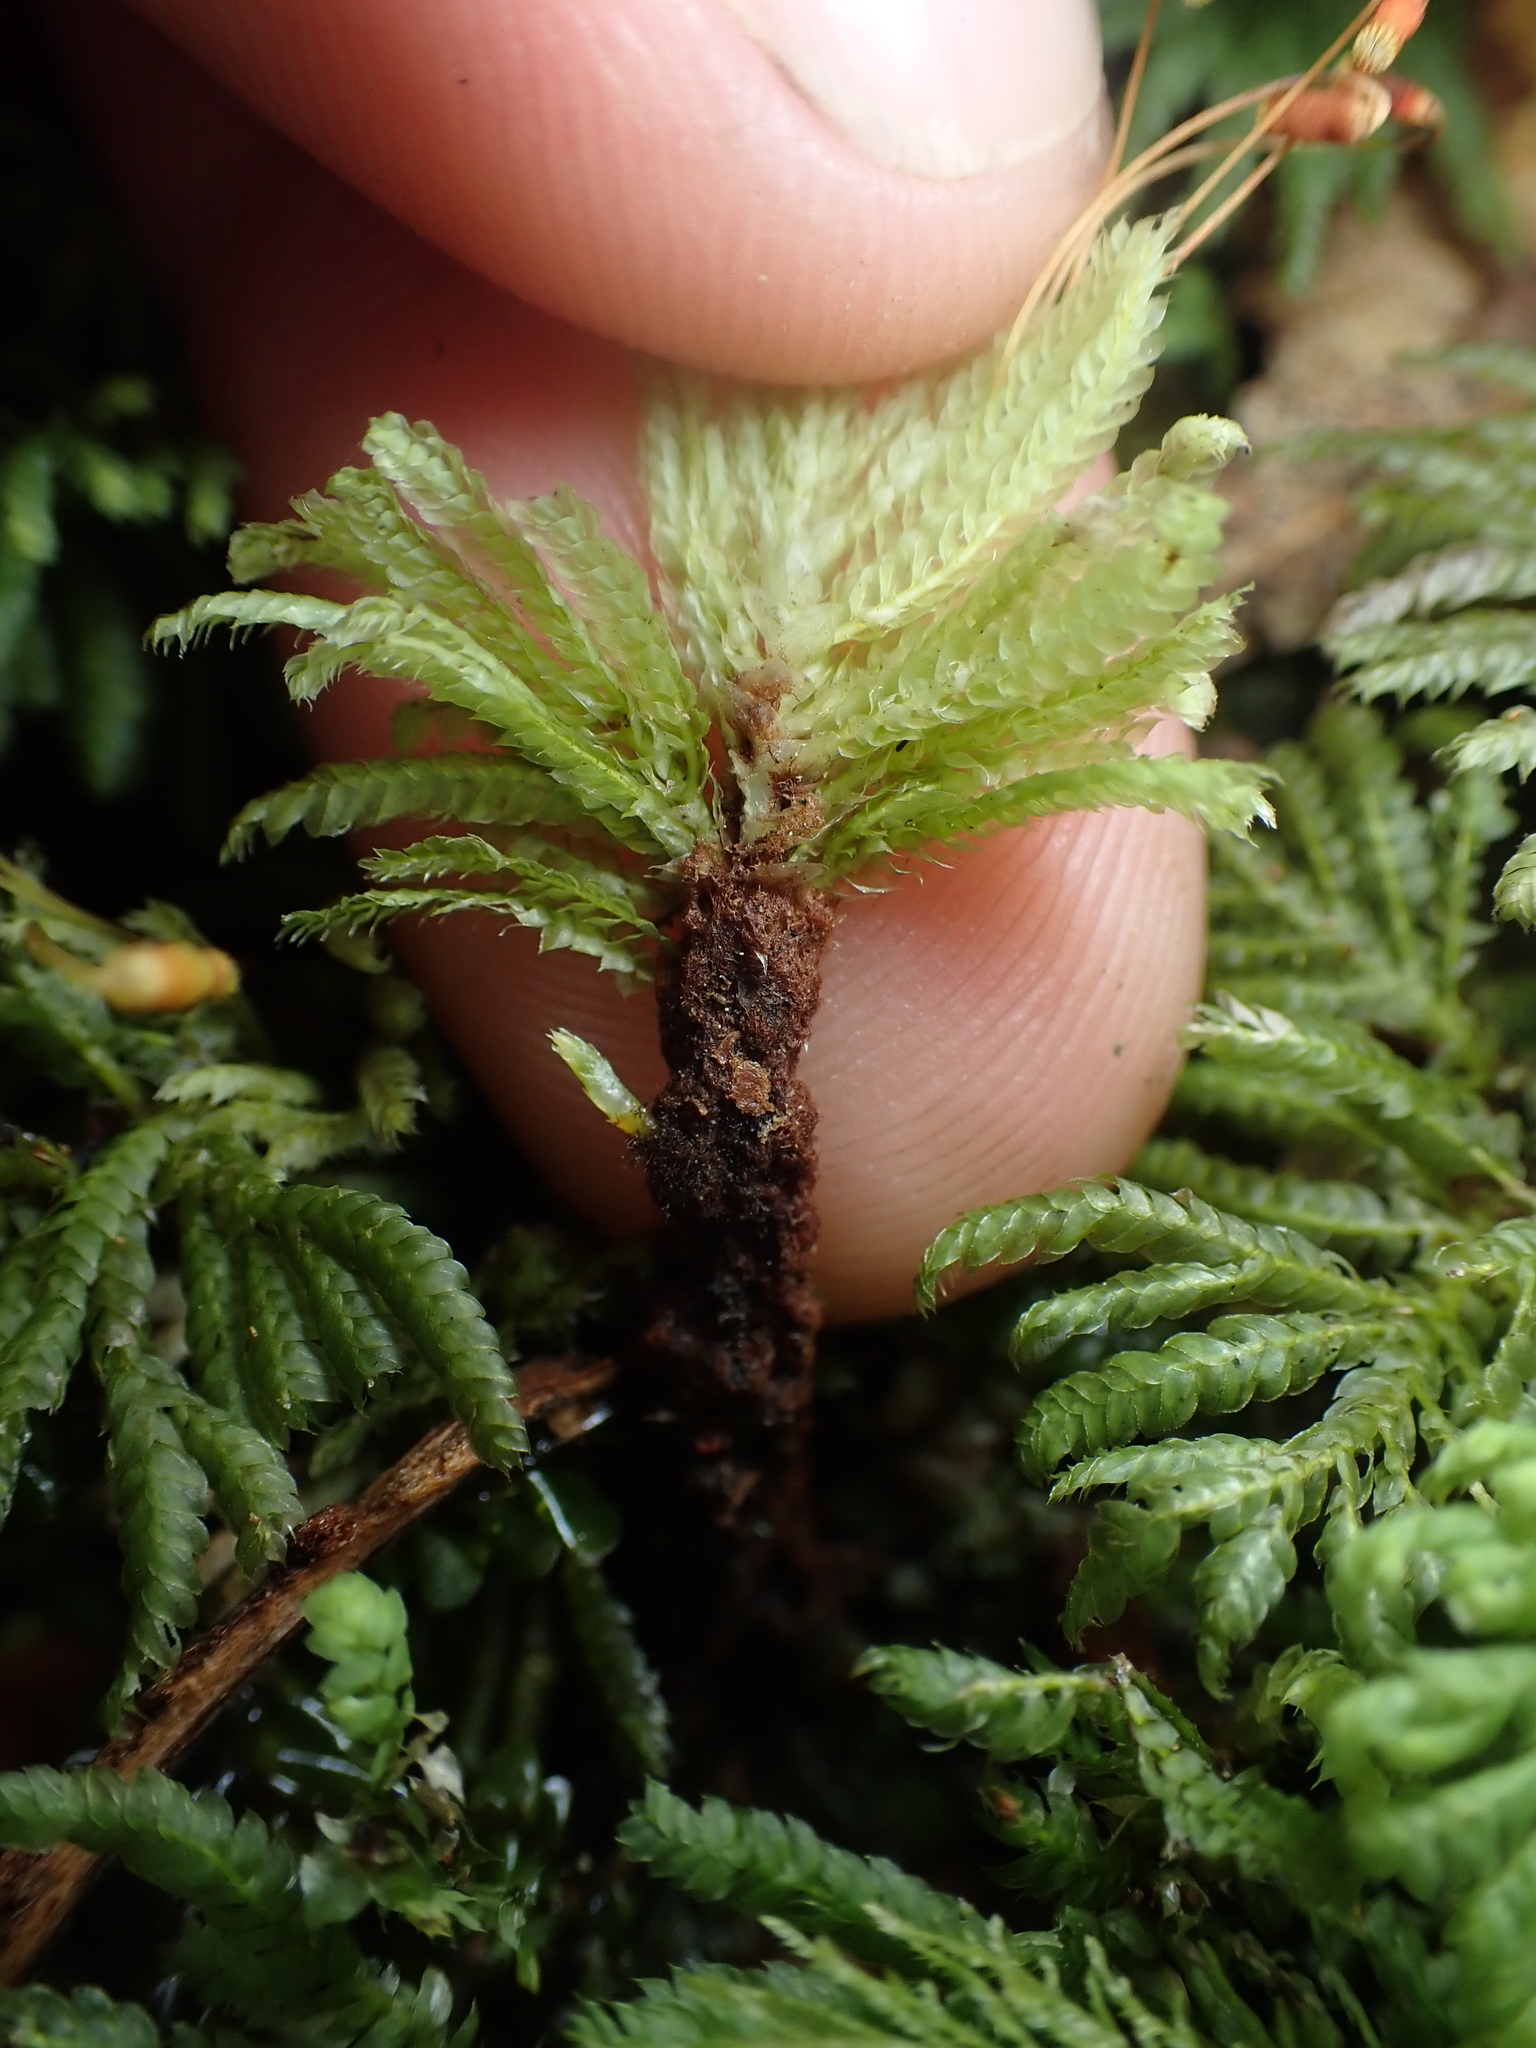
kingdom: Plantae
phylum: Bryophyta
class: Bryopsida
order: Hypopterygiales
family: Hypopterygiaceae
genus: Hypopterygium
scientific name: Hypopterygium didictyon
